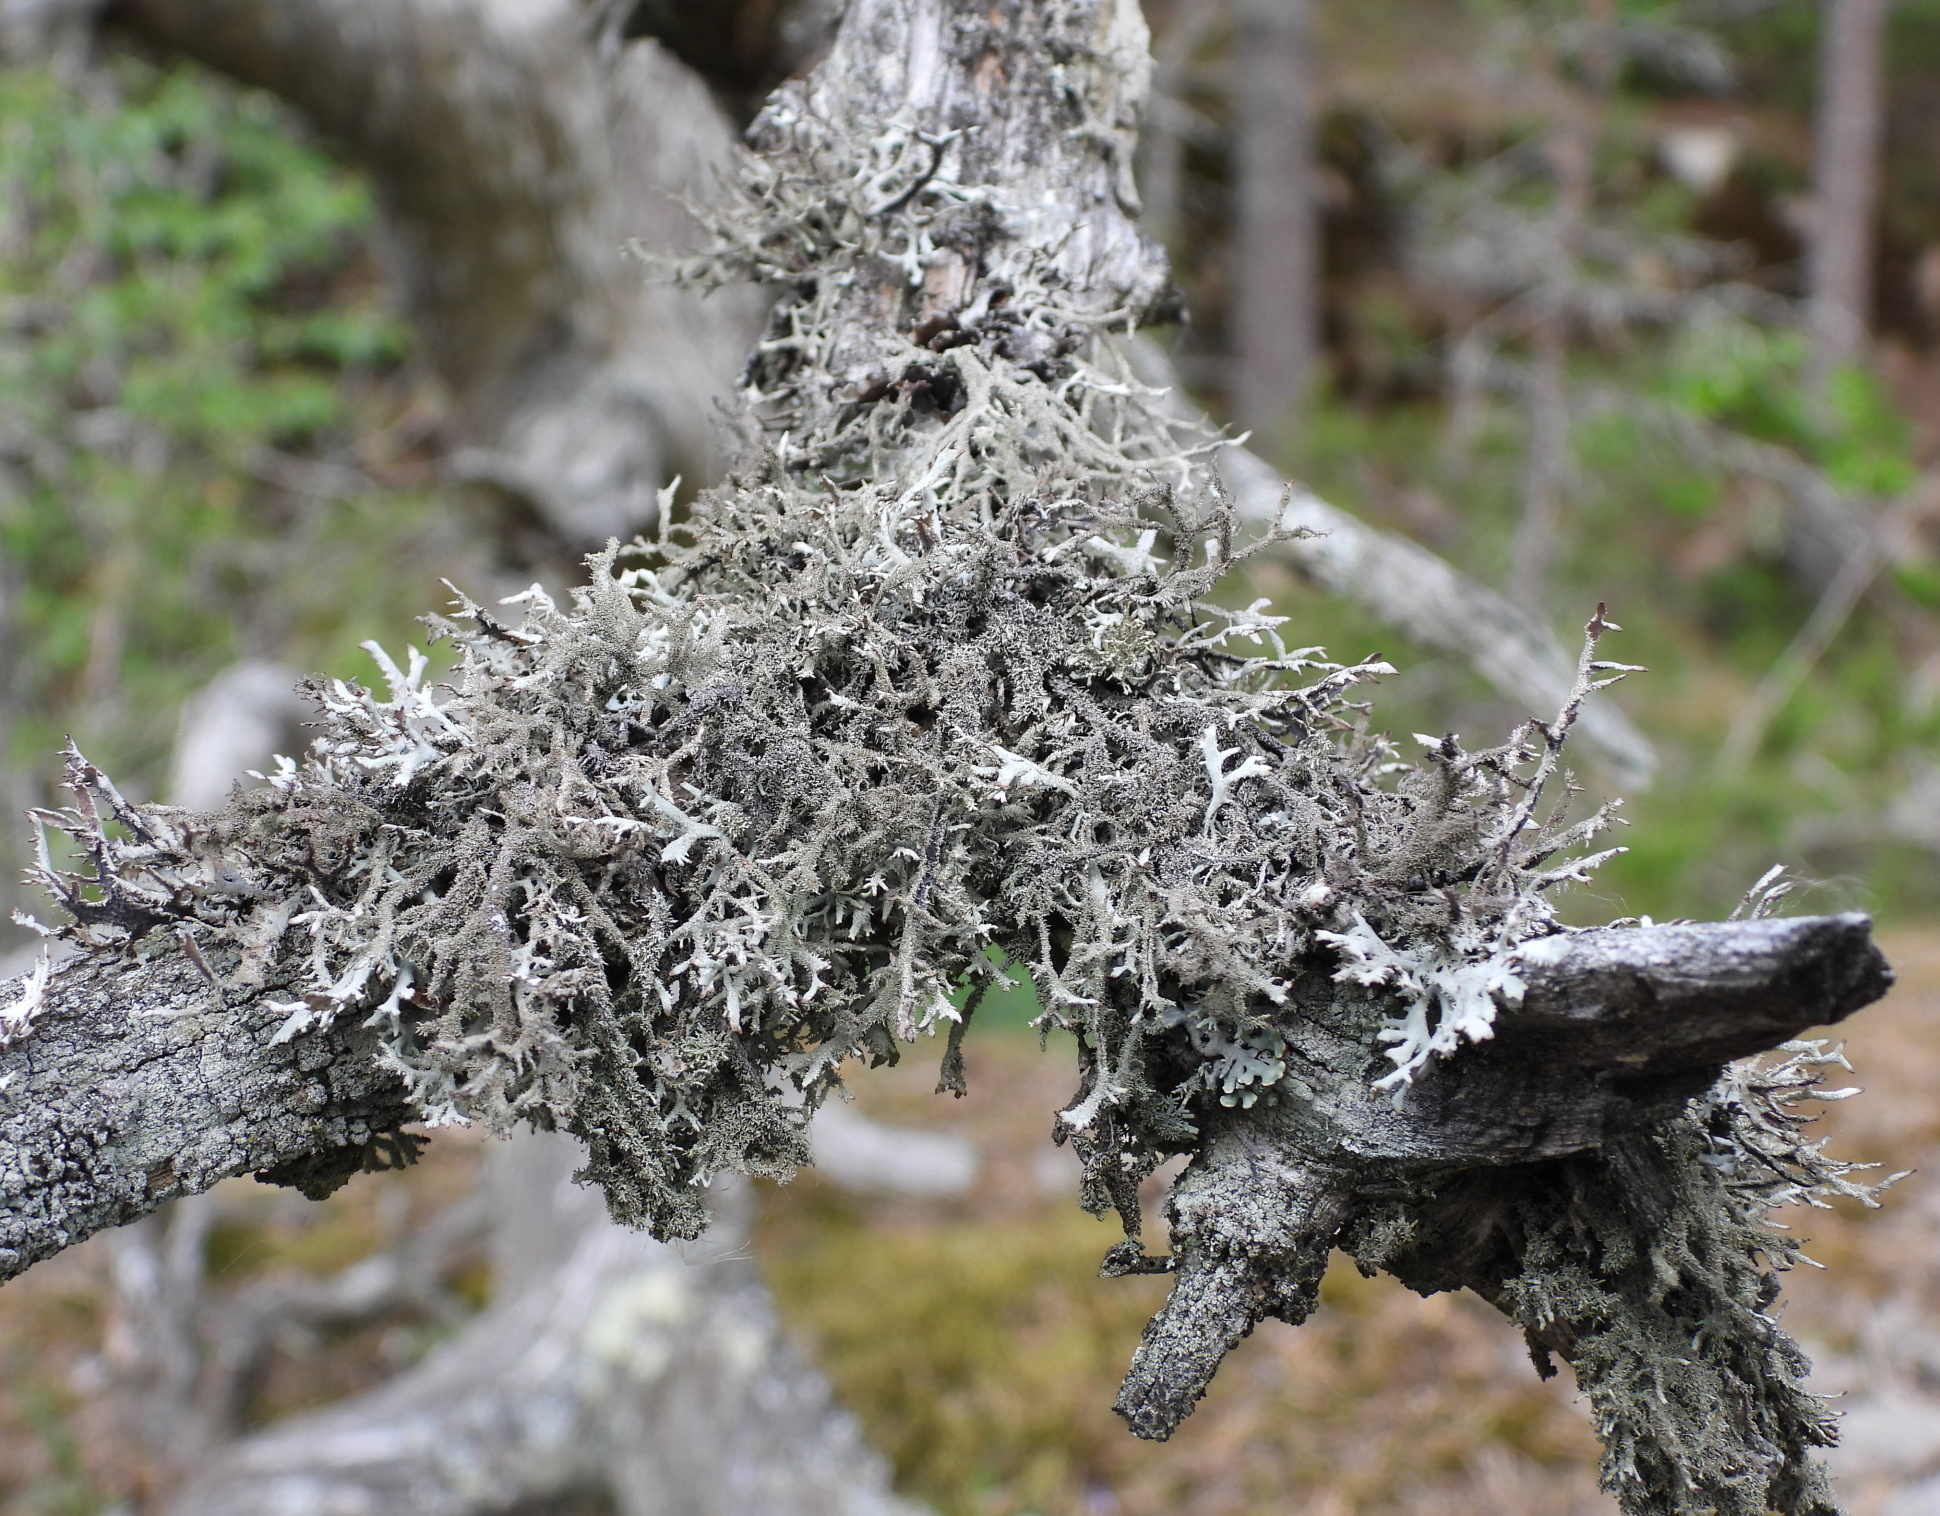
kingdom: Fungi
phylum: Ascomycota
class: Lecanoromycetes
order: Lecanorales
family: Parmeliaceae
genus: Pseudevernia
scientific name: Pseudevernia furfuracea
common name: Tree moss
